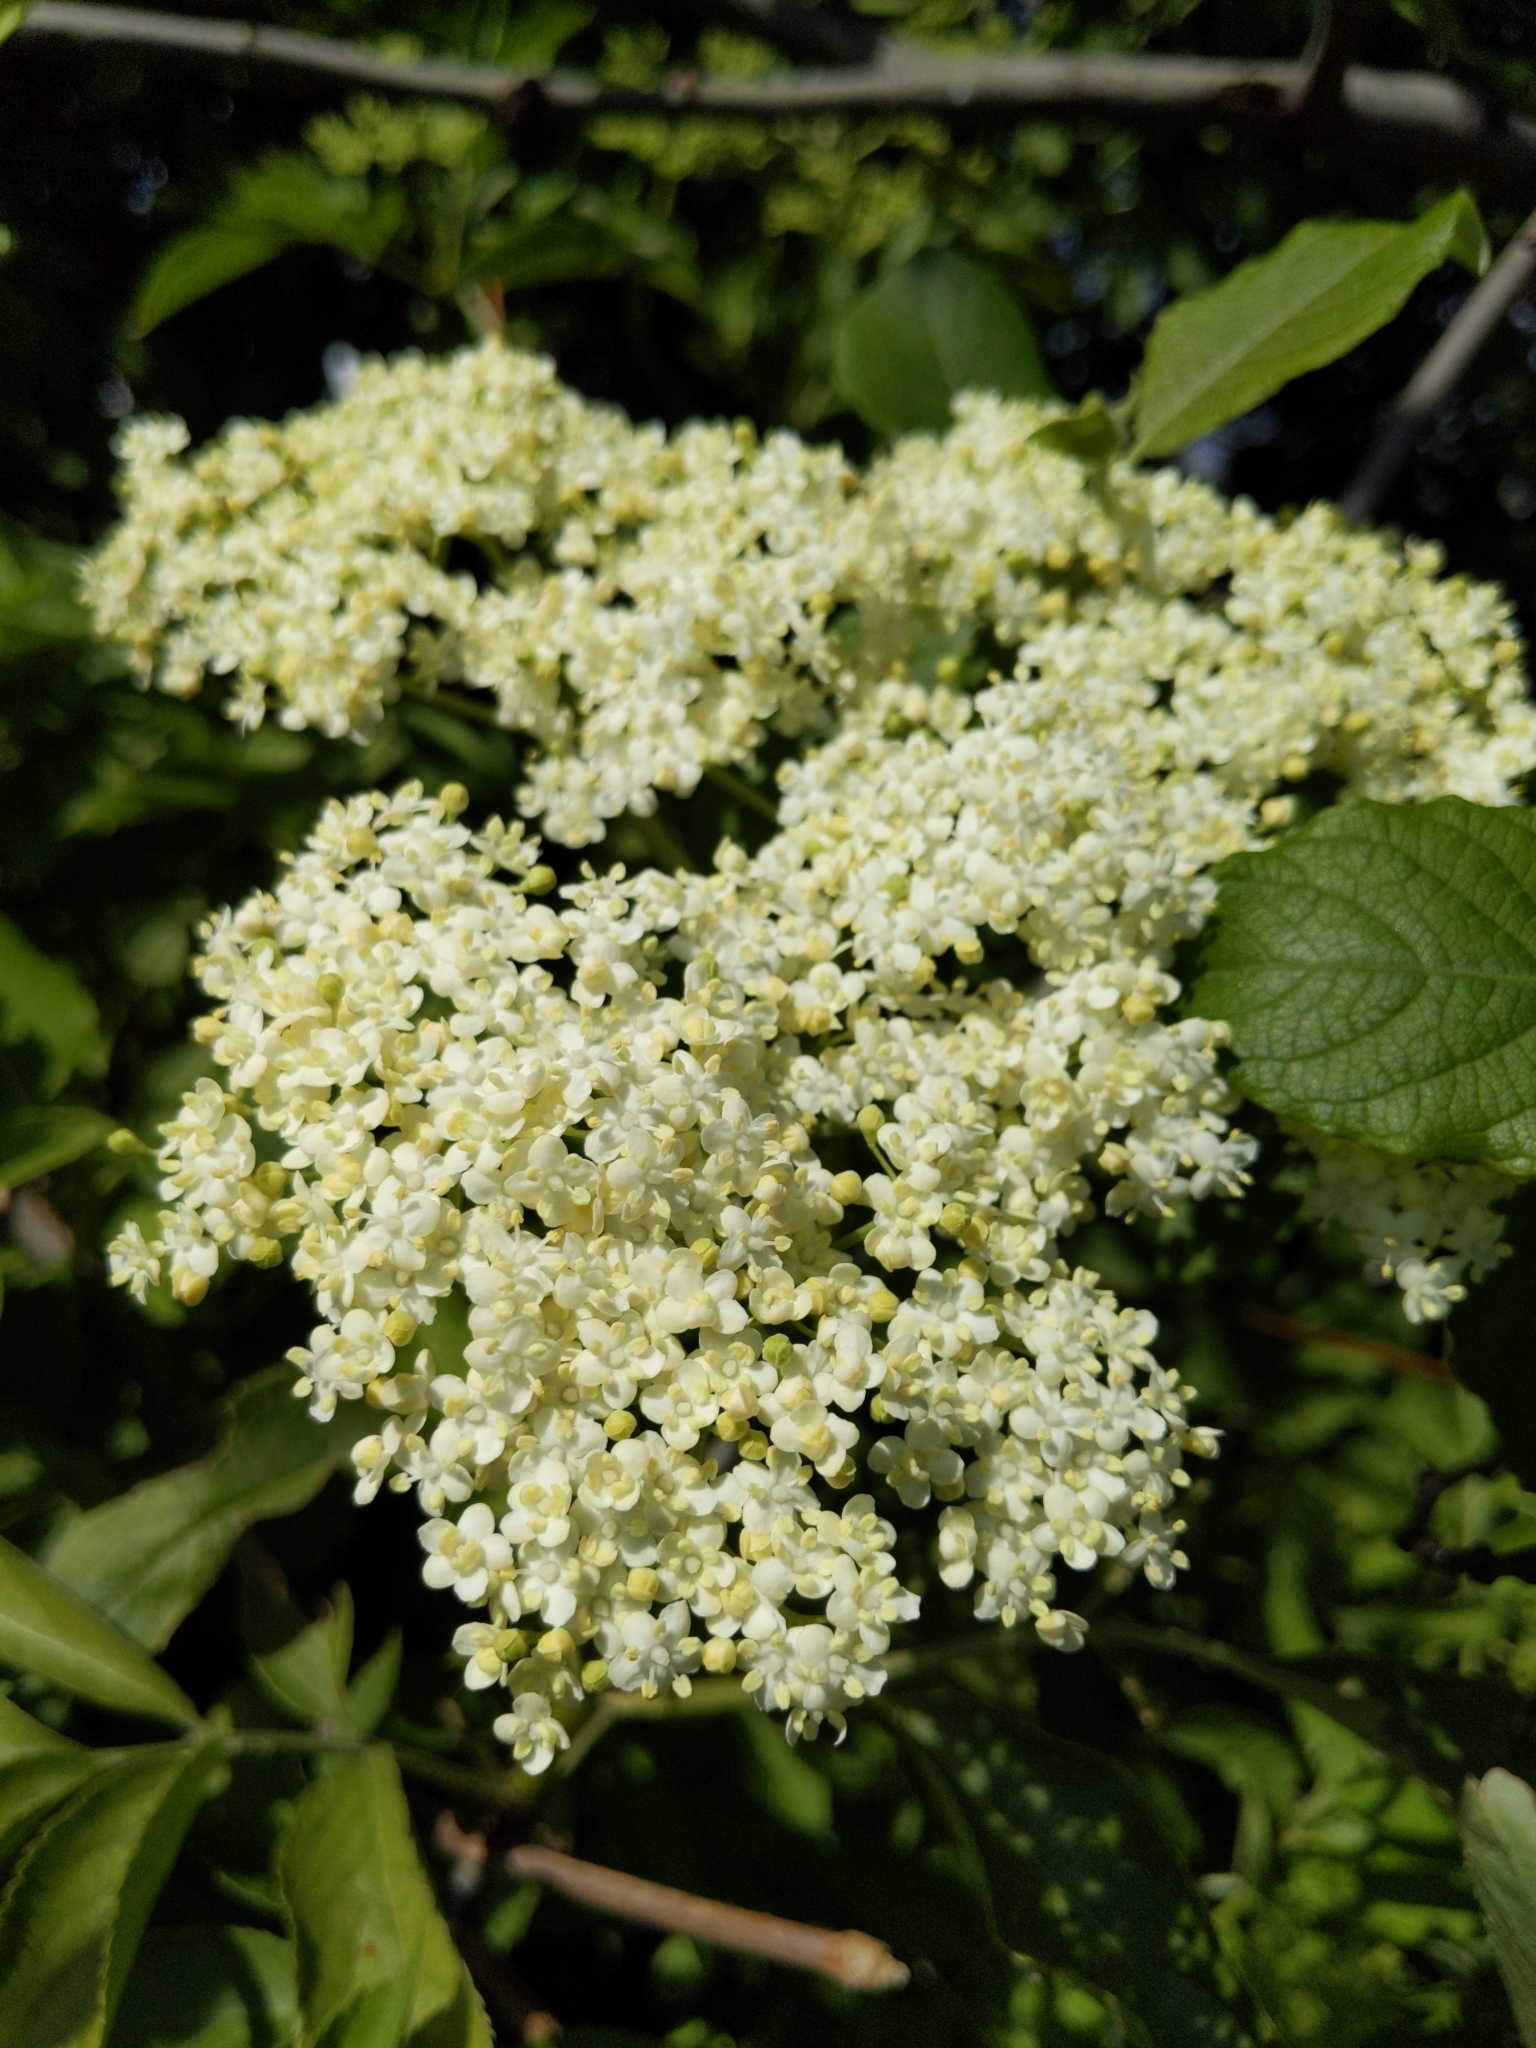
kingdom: Plantae
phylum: Tracheophyta
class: Magnoliopsida
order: Dipsacales
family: Viburnaceae
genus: Sambucus
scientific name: Sambucus nigra
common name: Elder
